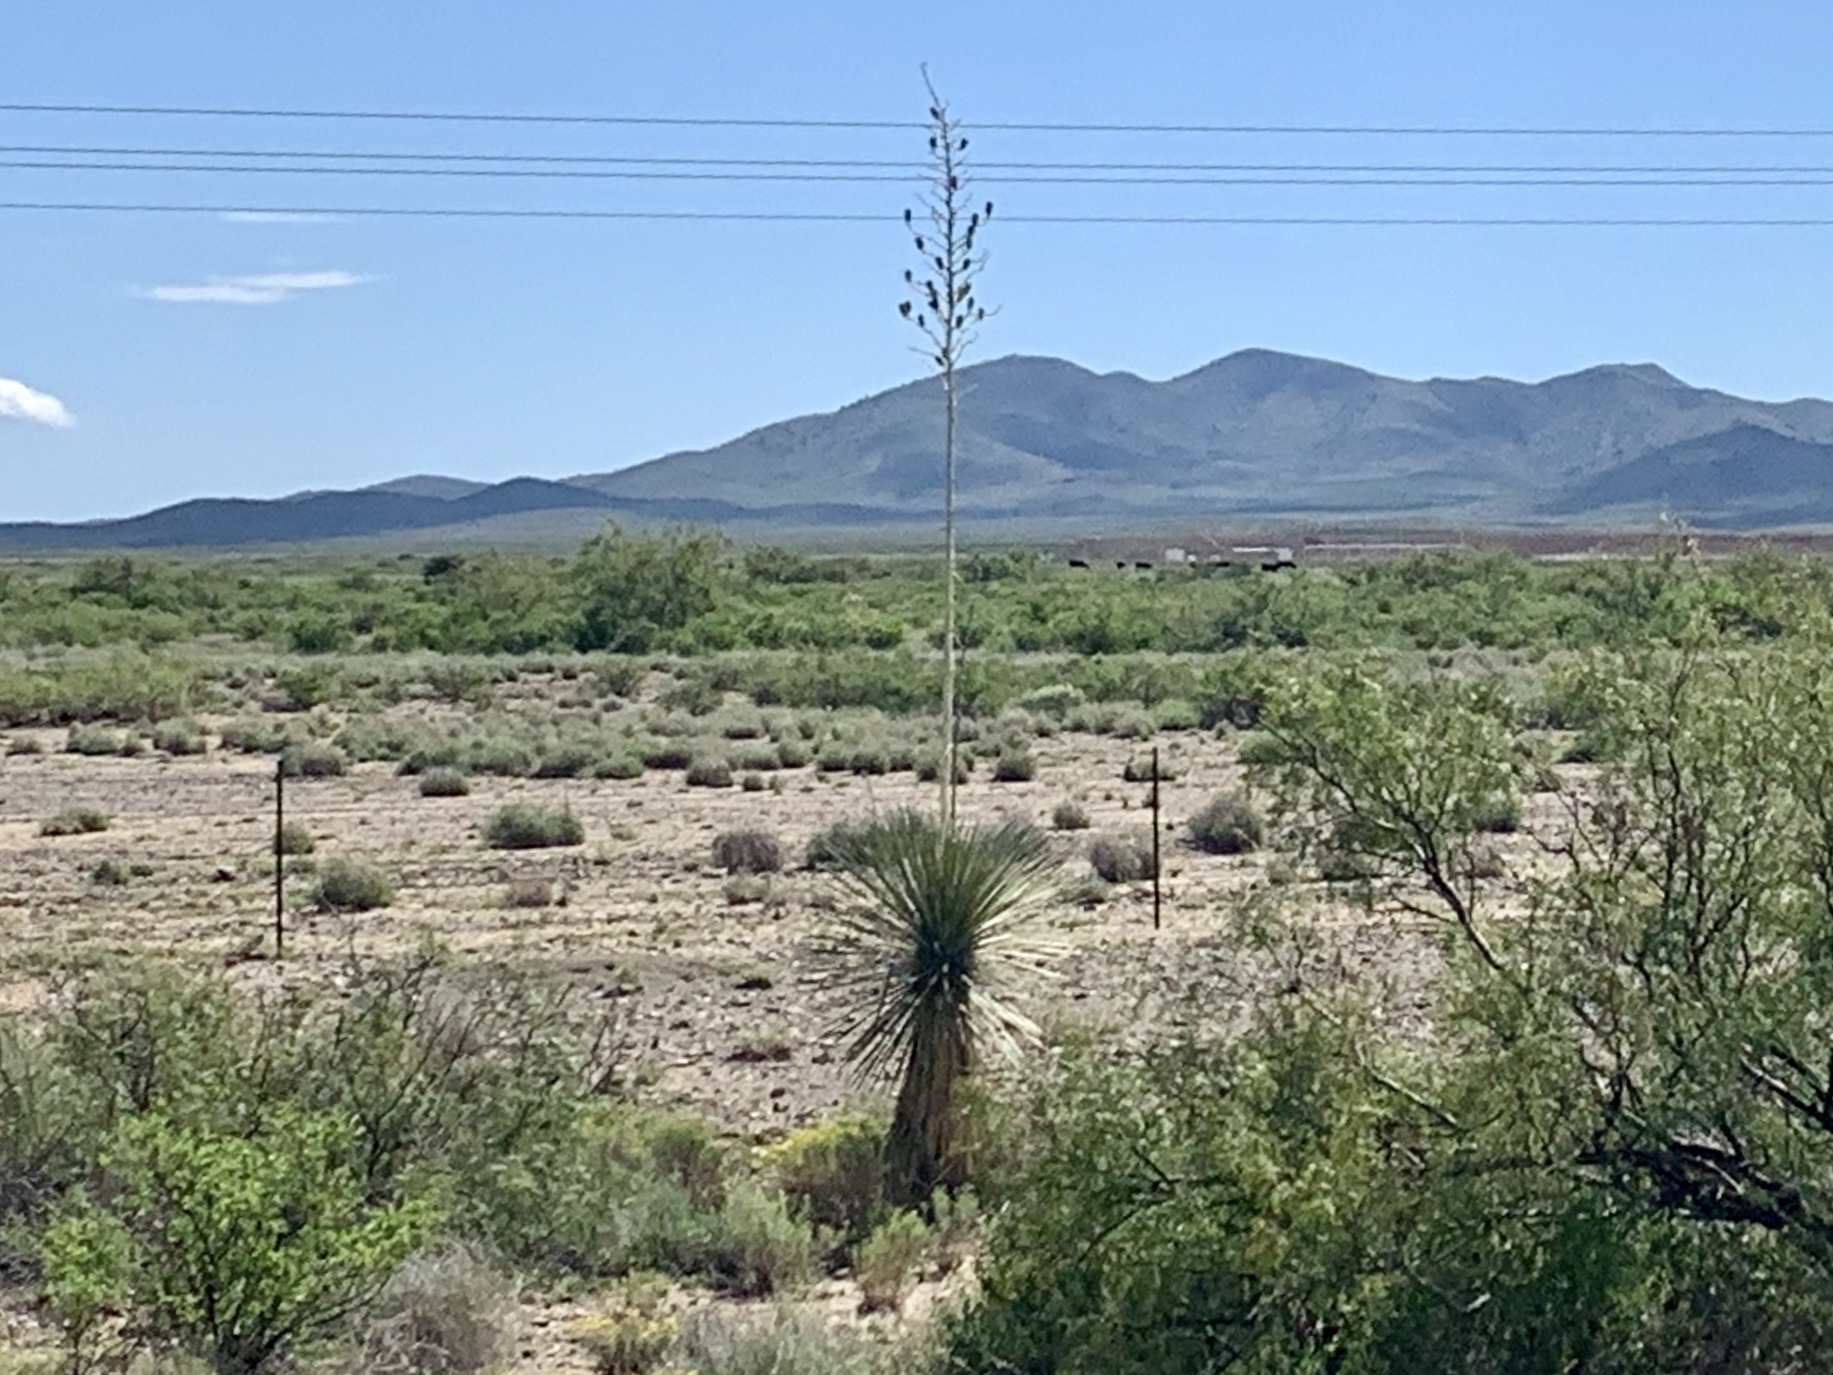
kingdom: Plantae
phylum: Tracheophyta
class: Liliopsida
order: Asparagales
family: Asparagaceae
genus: Yucca
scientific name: Yucca elata
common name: Palmella
